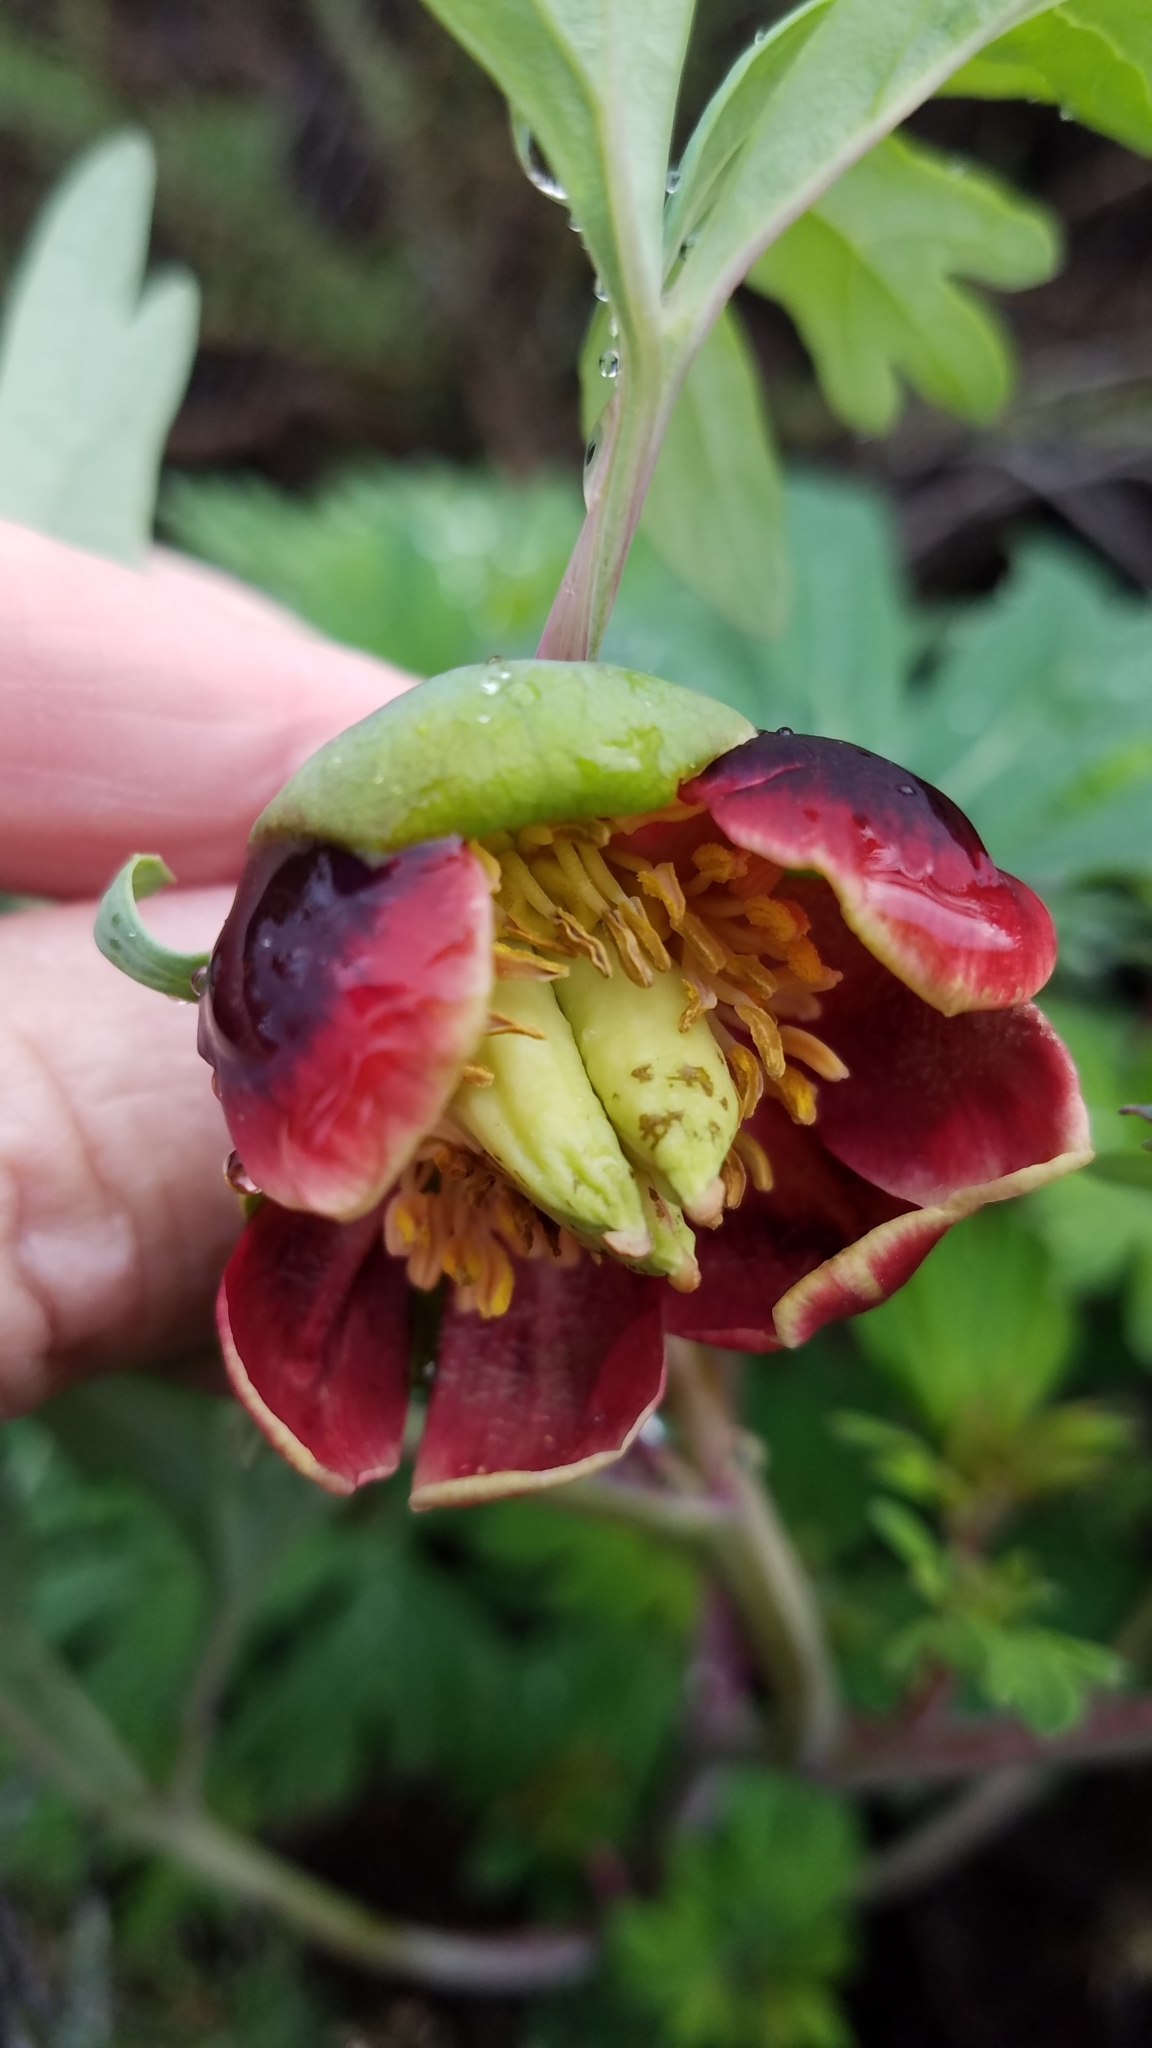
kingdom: Plantae
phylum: Tracheophyta
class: Magnoliopsida
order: Saxifragales
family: Paeoniaceae
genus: Paeonia
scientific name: Paeonia californica
